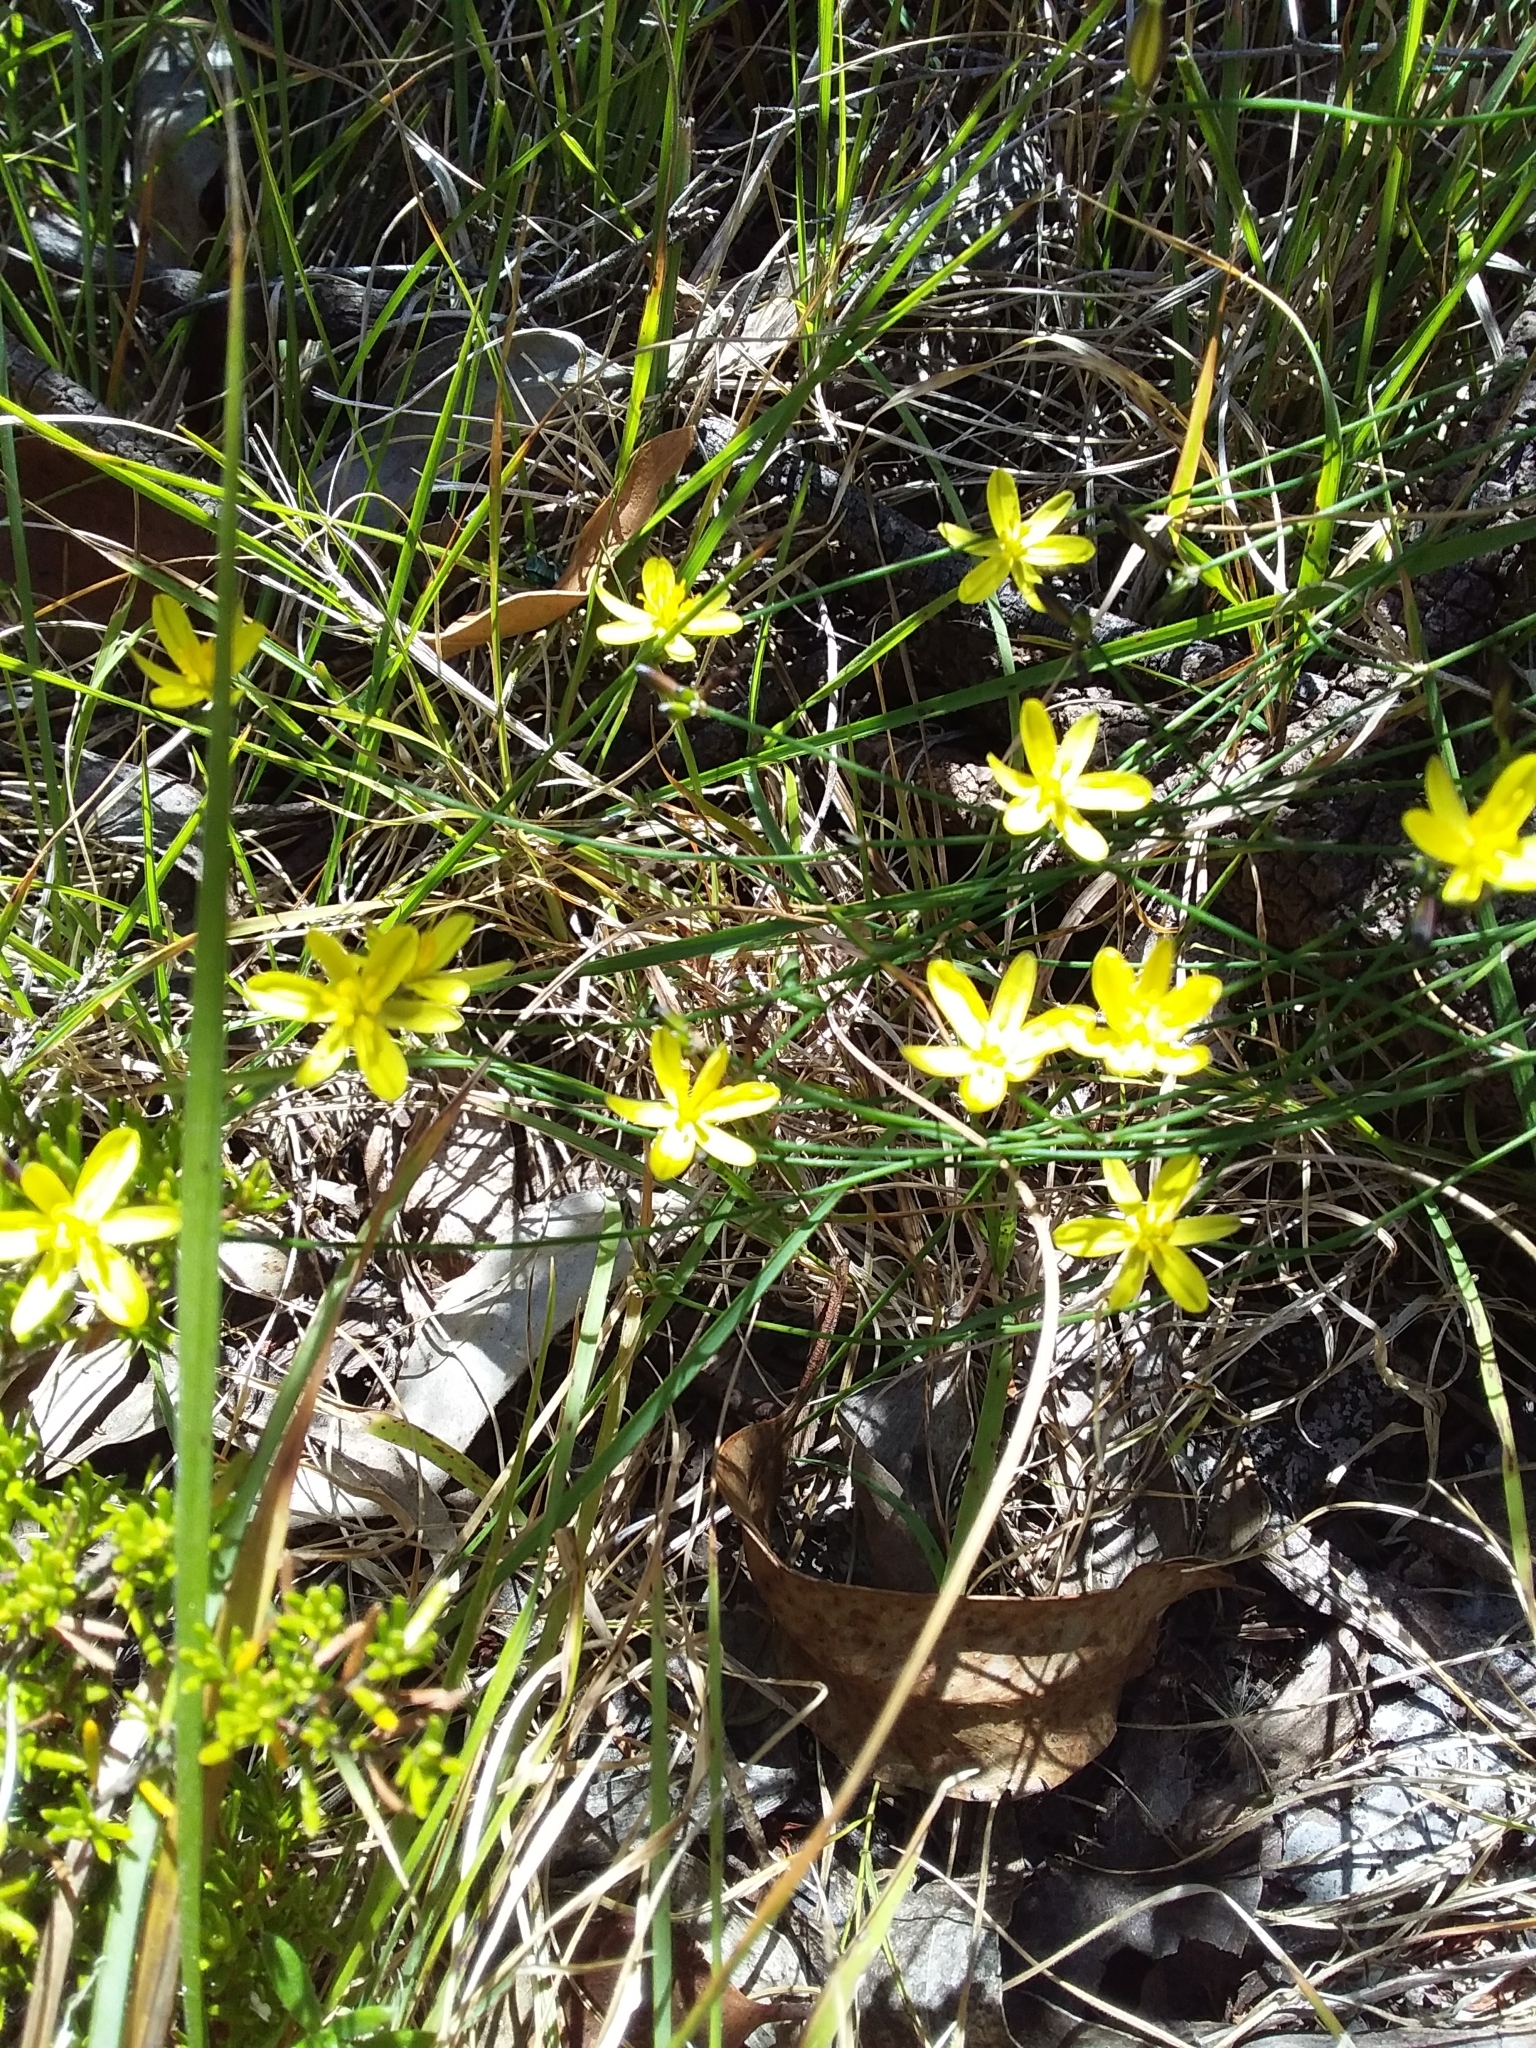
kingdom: Plantae
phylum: Tracheophyta
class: Liliopsida
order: Asparagales
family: Asphodelaceae
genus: Tricoryne
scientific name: Tricoryne elatior
